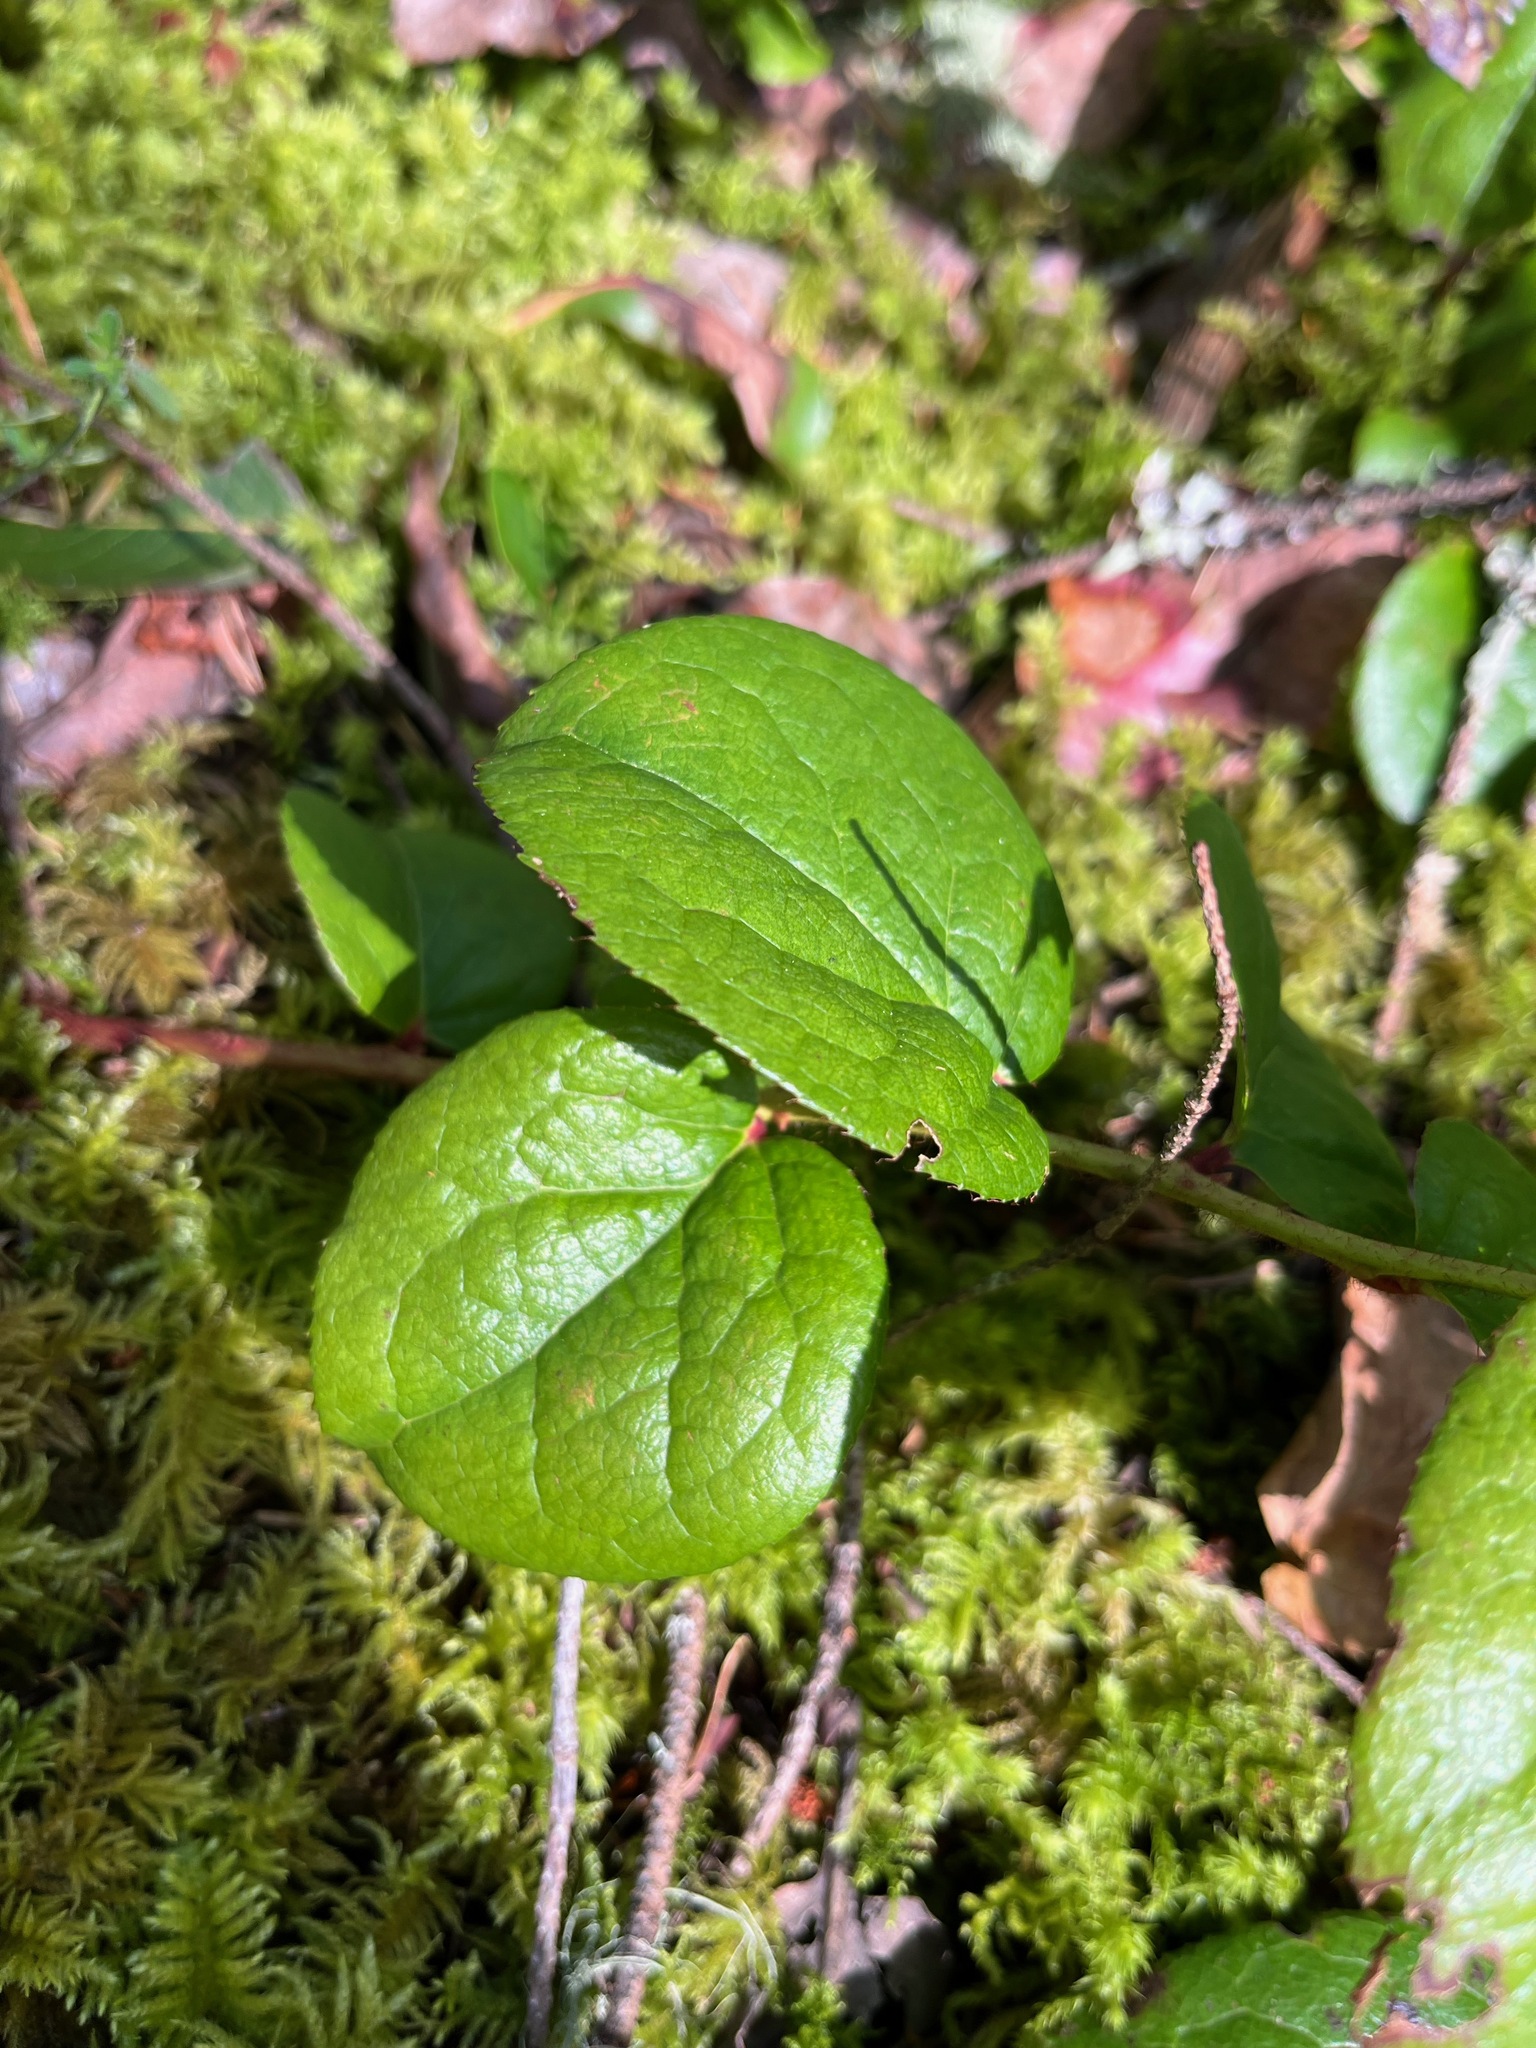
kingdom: Plantae
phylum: Tracheophyta
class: Magnoliopsida
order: Ericales
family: Ericaceae
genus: Gaultheria
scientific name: Gaultheria shallon
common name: Shallon
